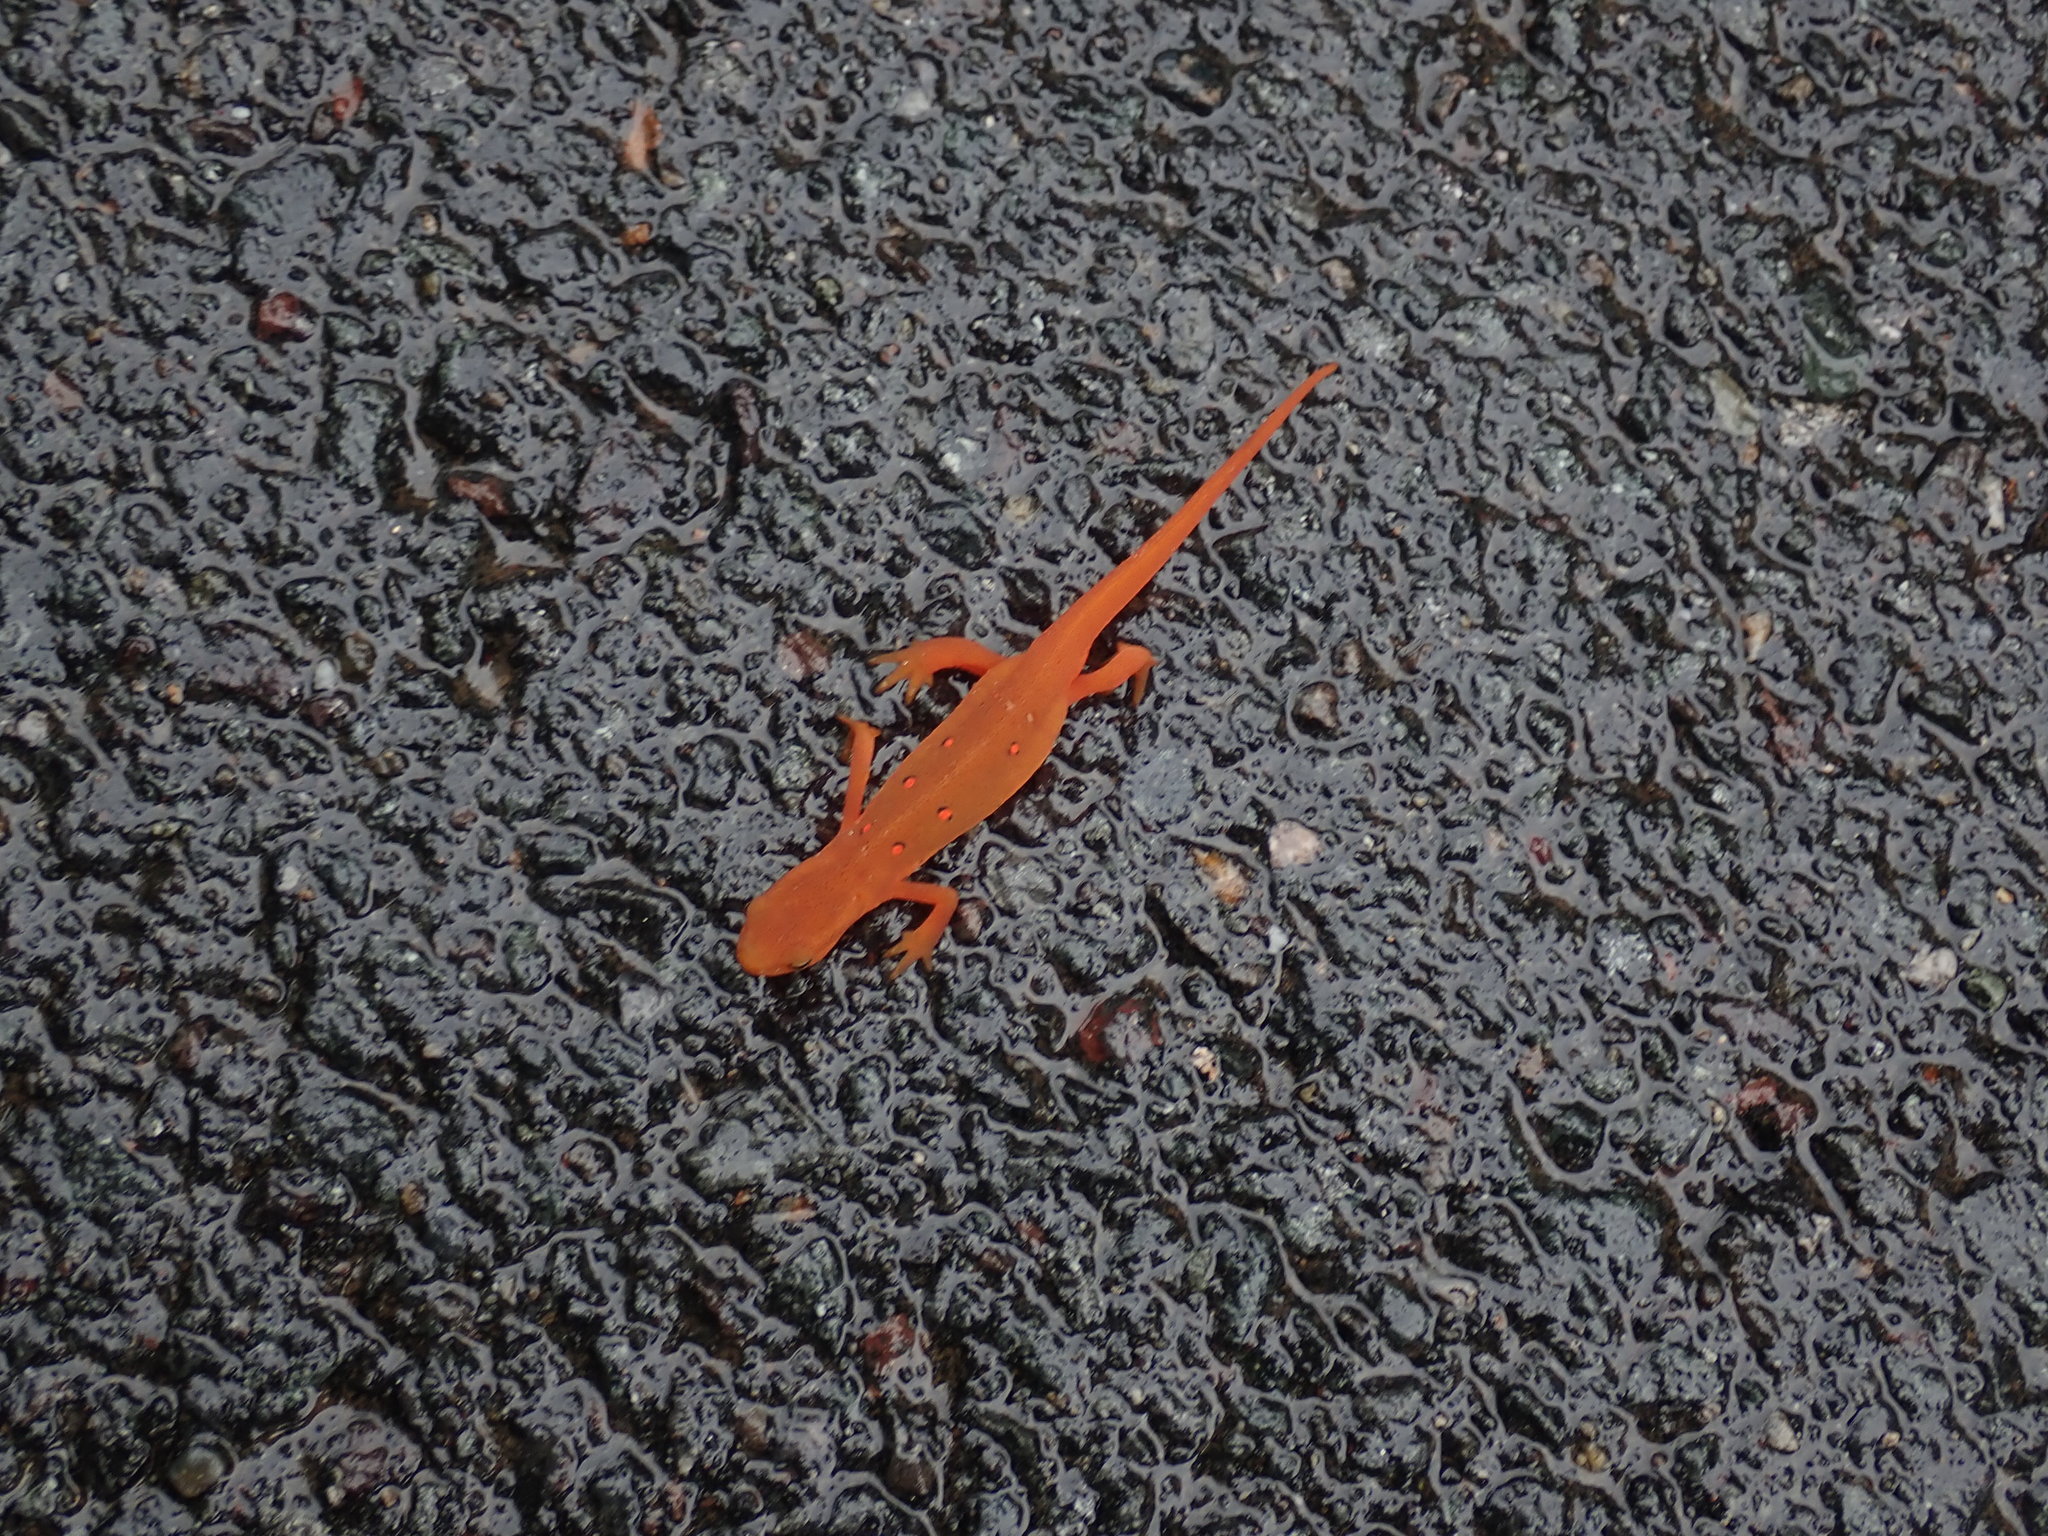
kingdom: Animalia
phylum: Chordata
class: Amphibia
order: Caudata
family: Salamandridae
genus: Notophthalmus
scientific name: Notophthalmus viridescens
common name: Eastern newt
